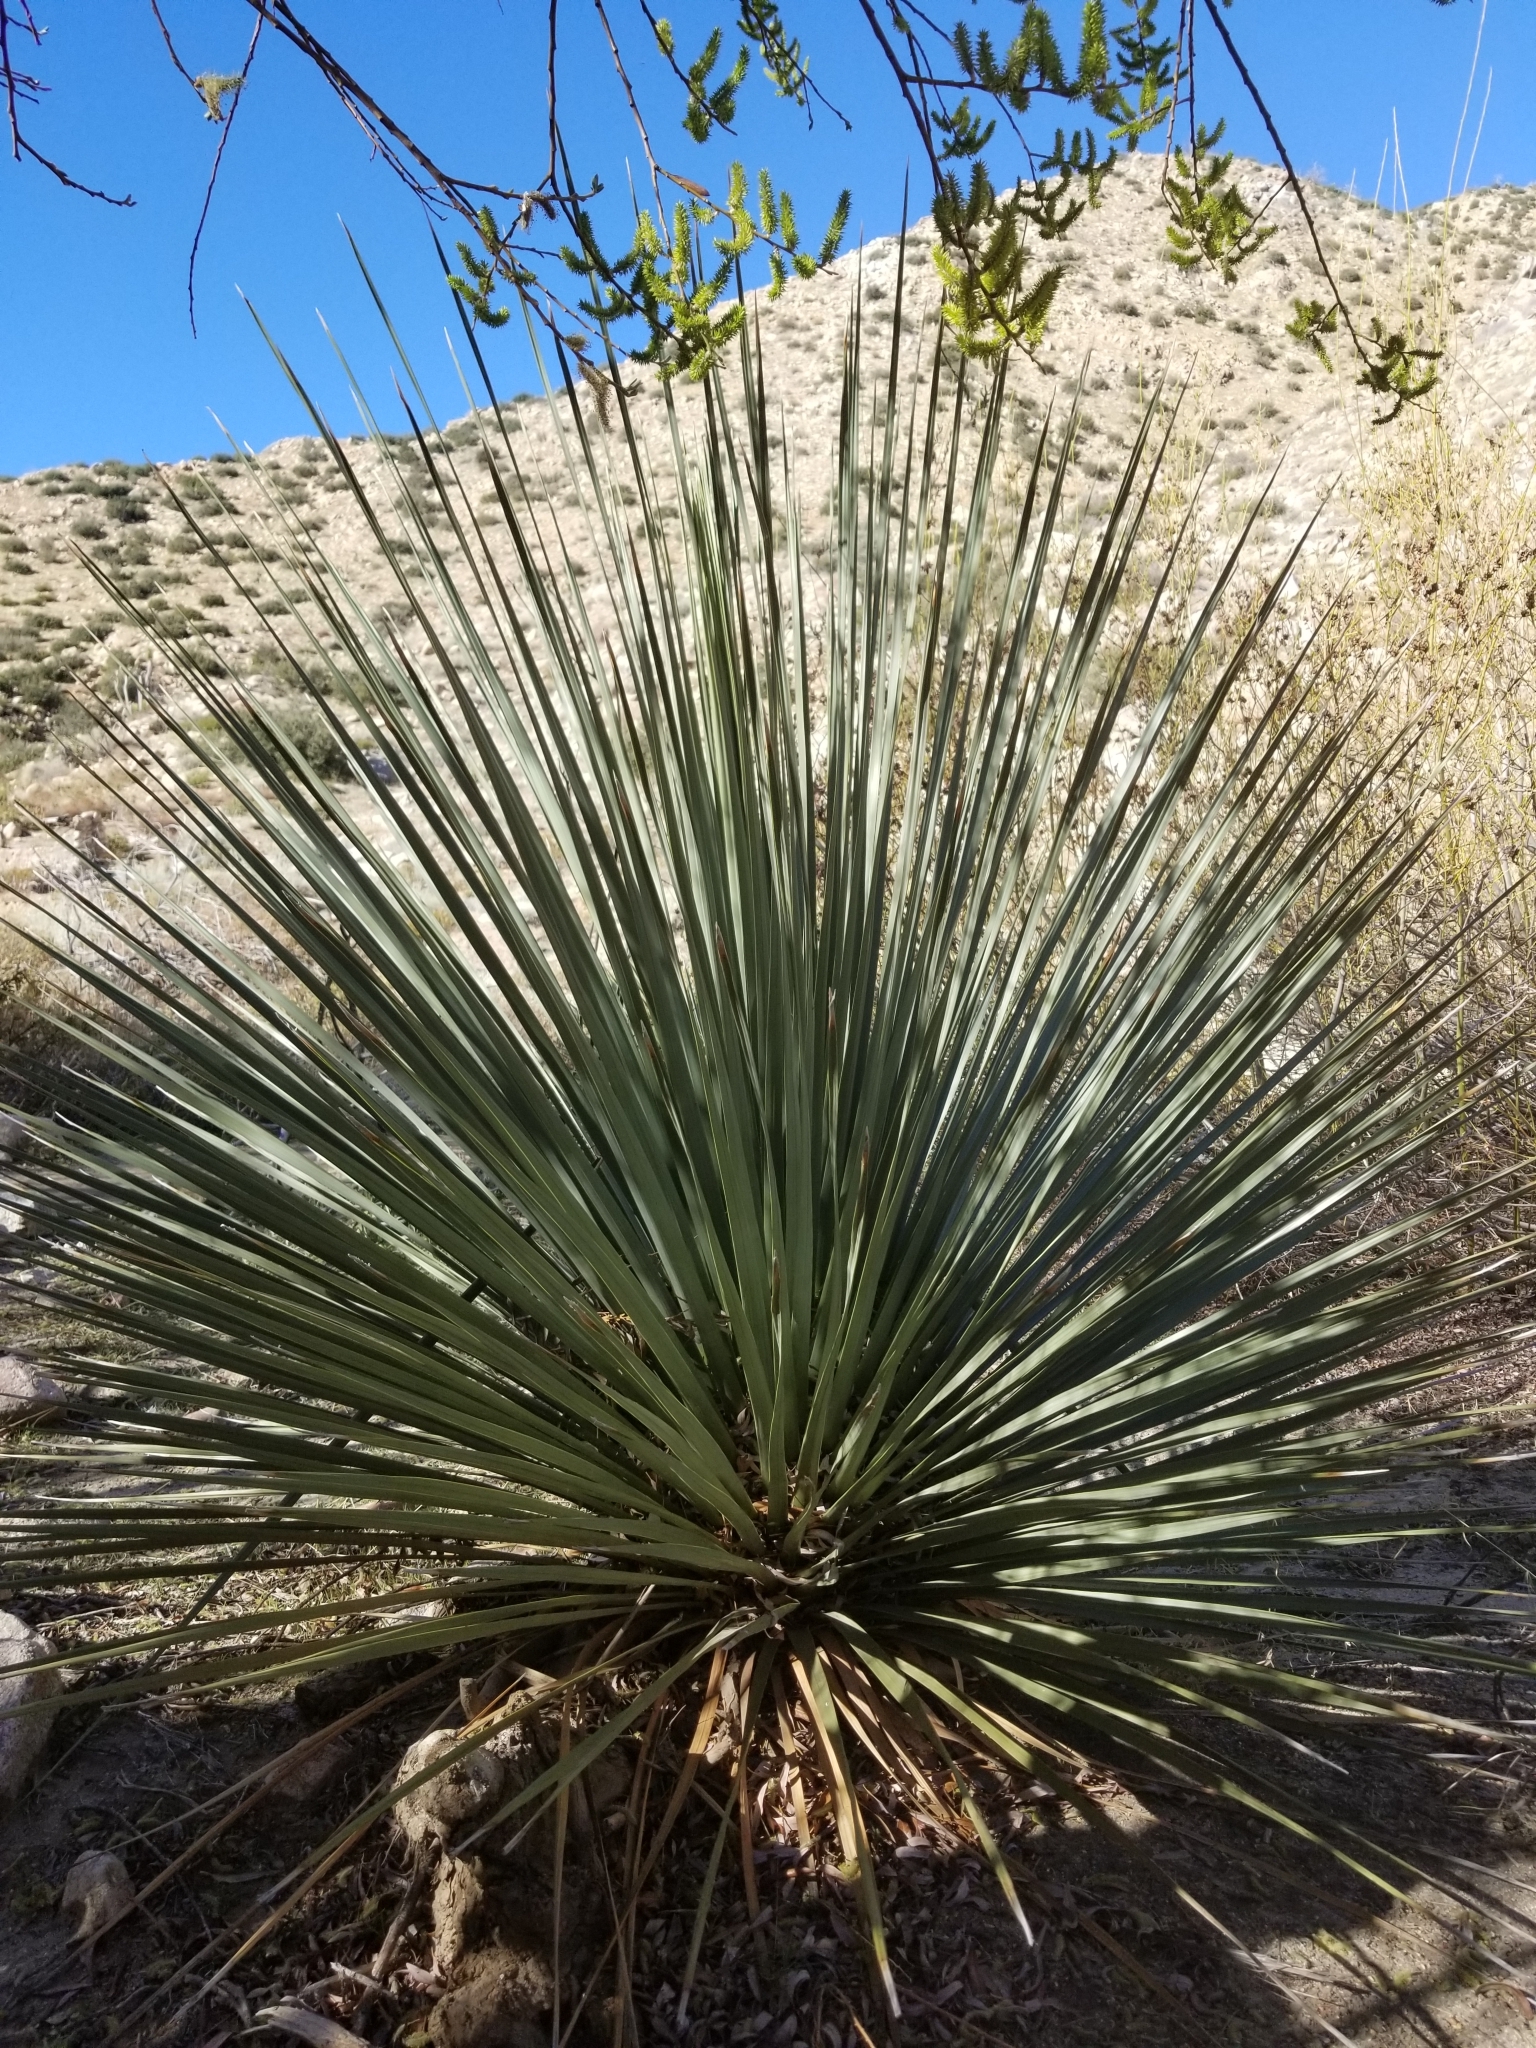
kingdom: Plantae
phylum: Tracheophyta
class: Liliopsida
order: Asparagales
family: Asparagaceae
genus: Nolina
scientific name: Nolina parryi
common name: Parry nolina
